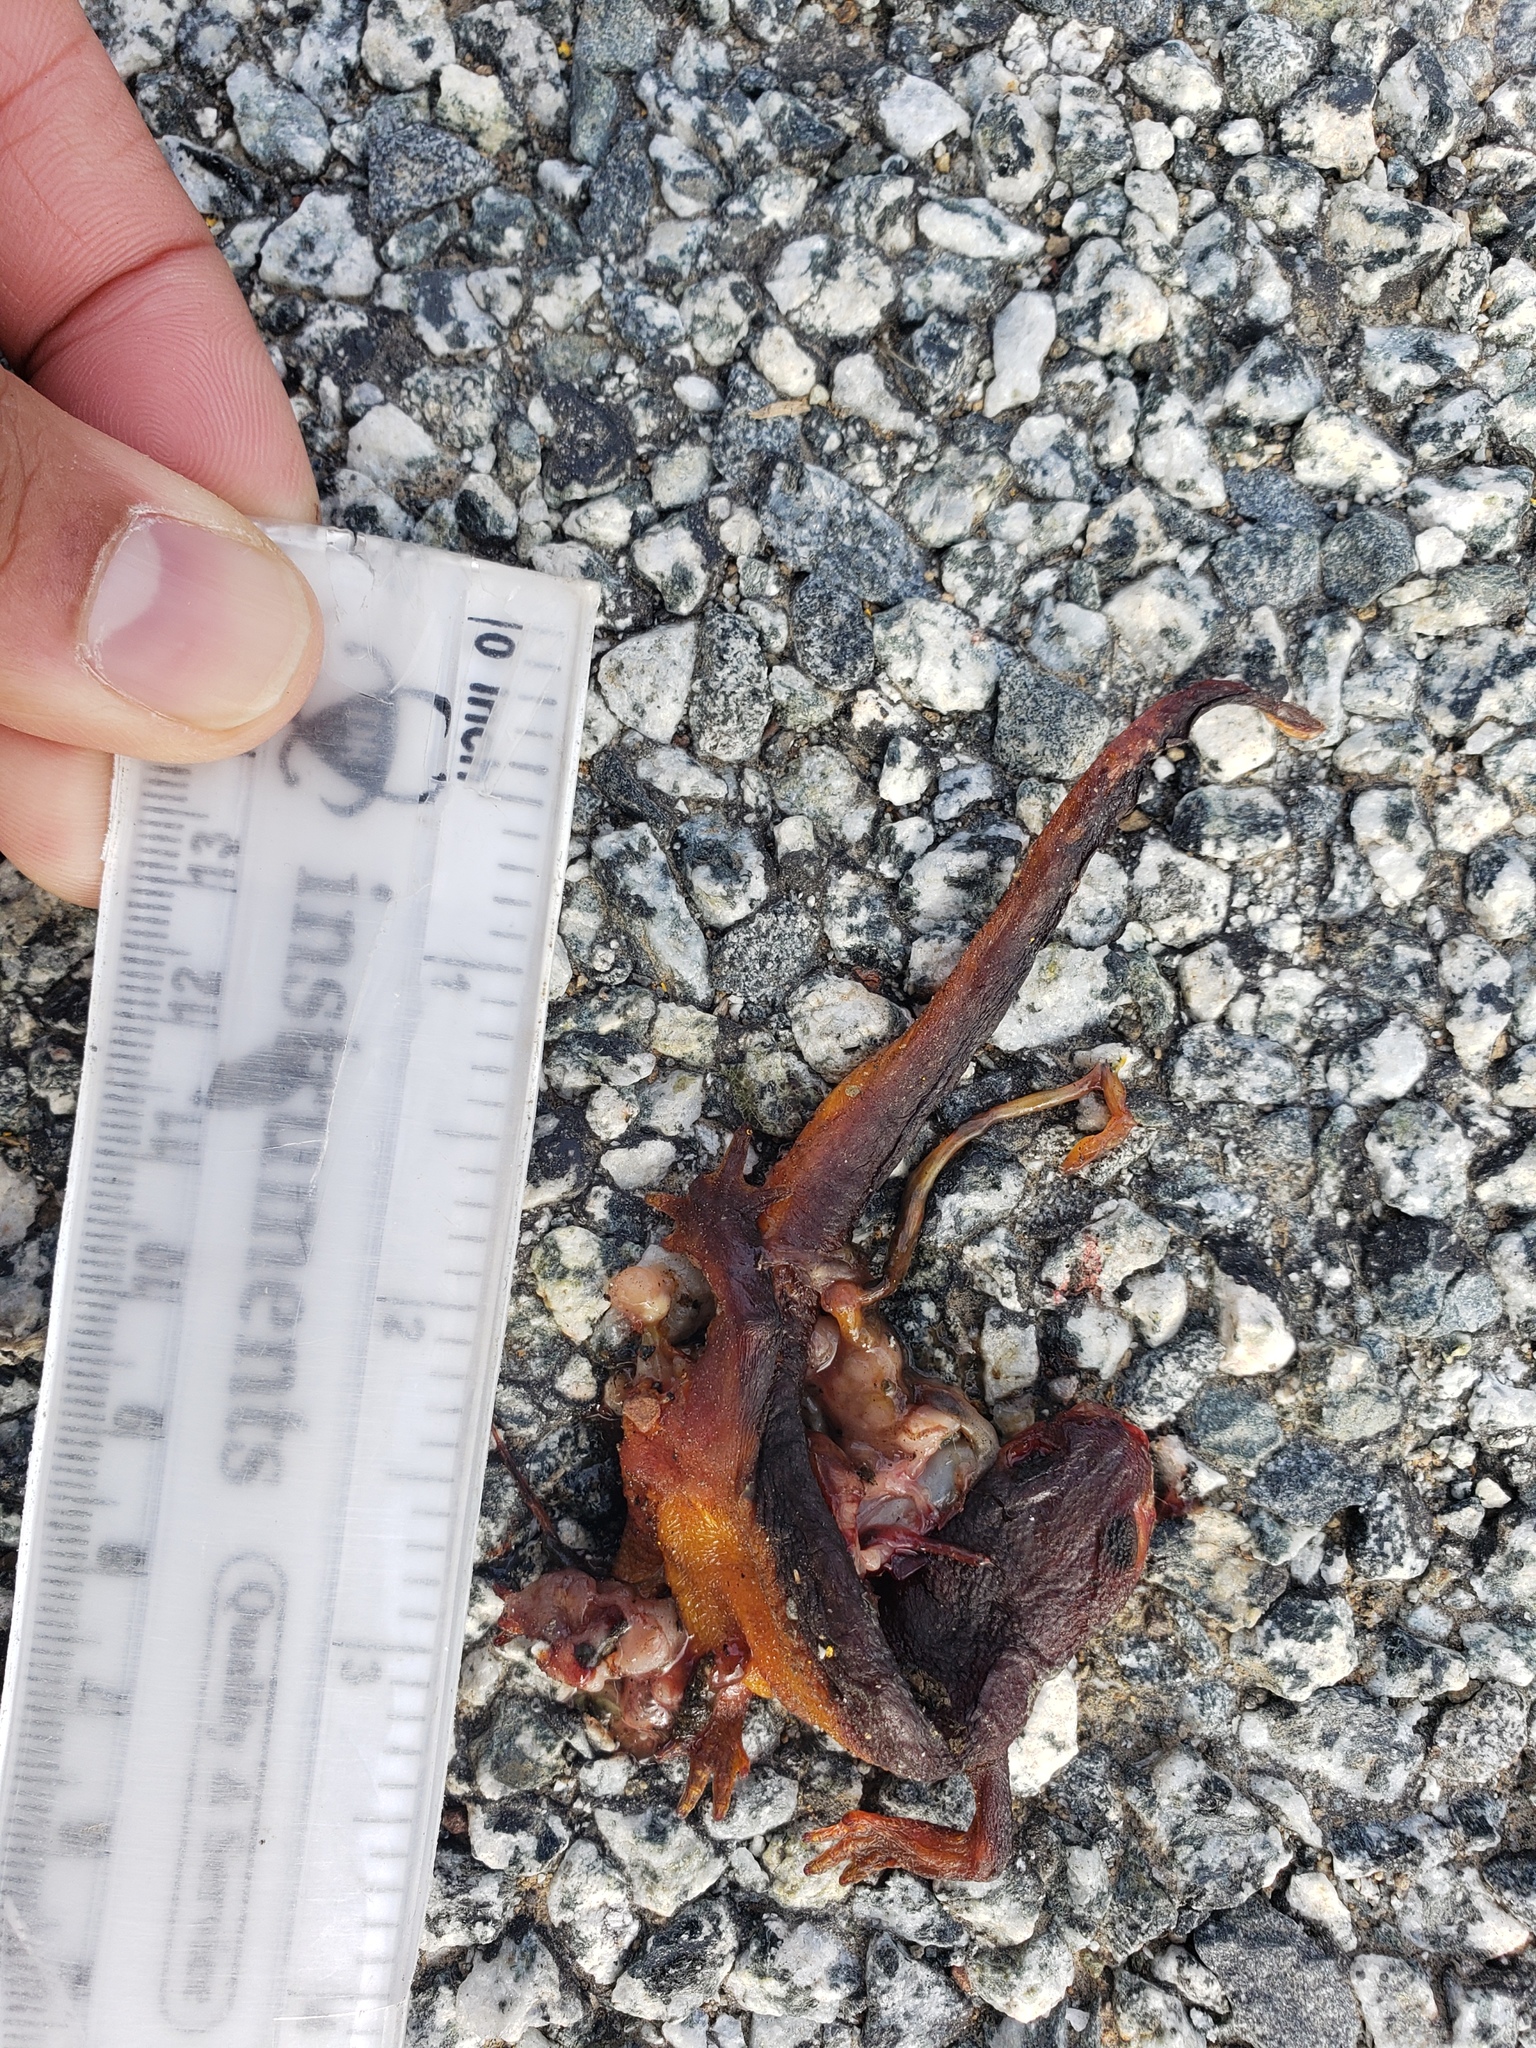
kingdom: Animalia
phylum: Chordata
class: Amphibia
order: Caudata
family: Salamandridae
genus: Taricha
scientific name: Taricha
